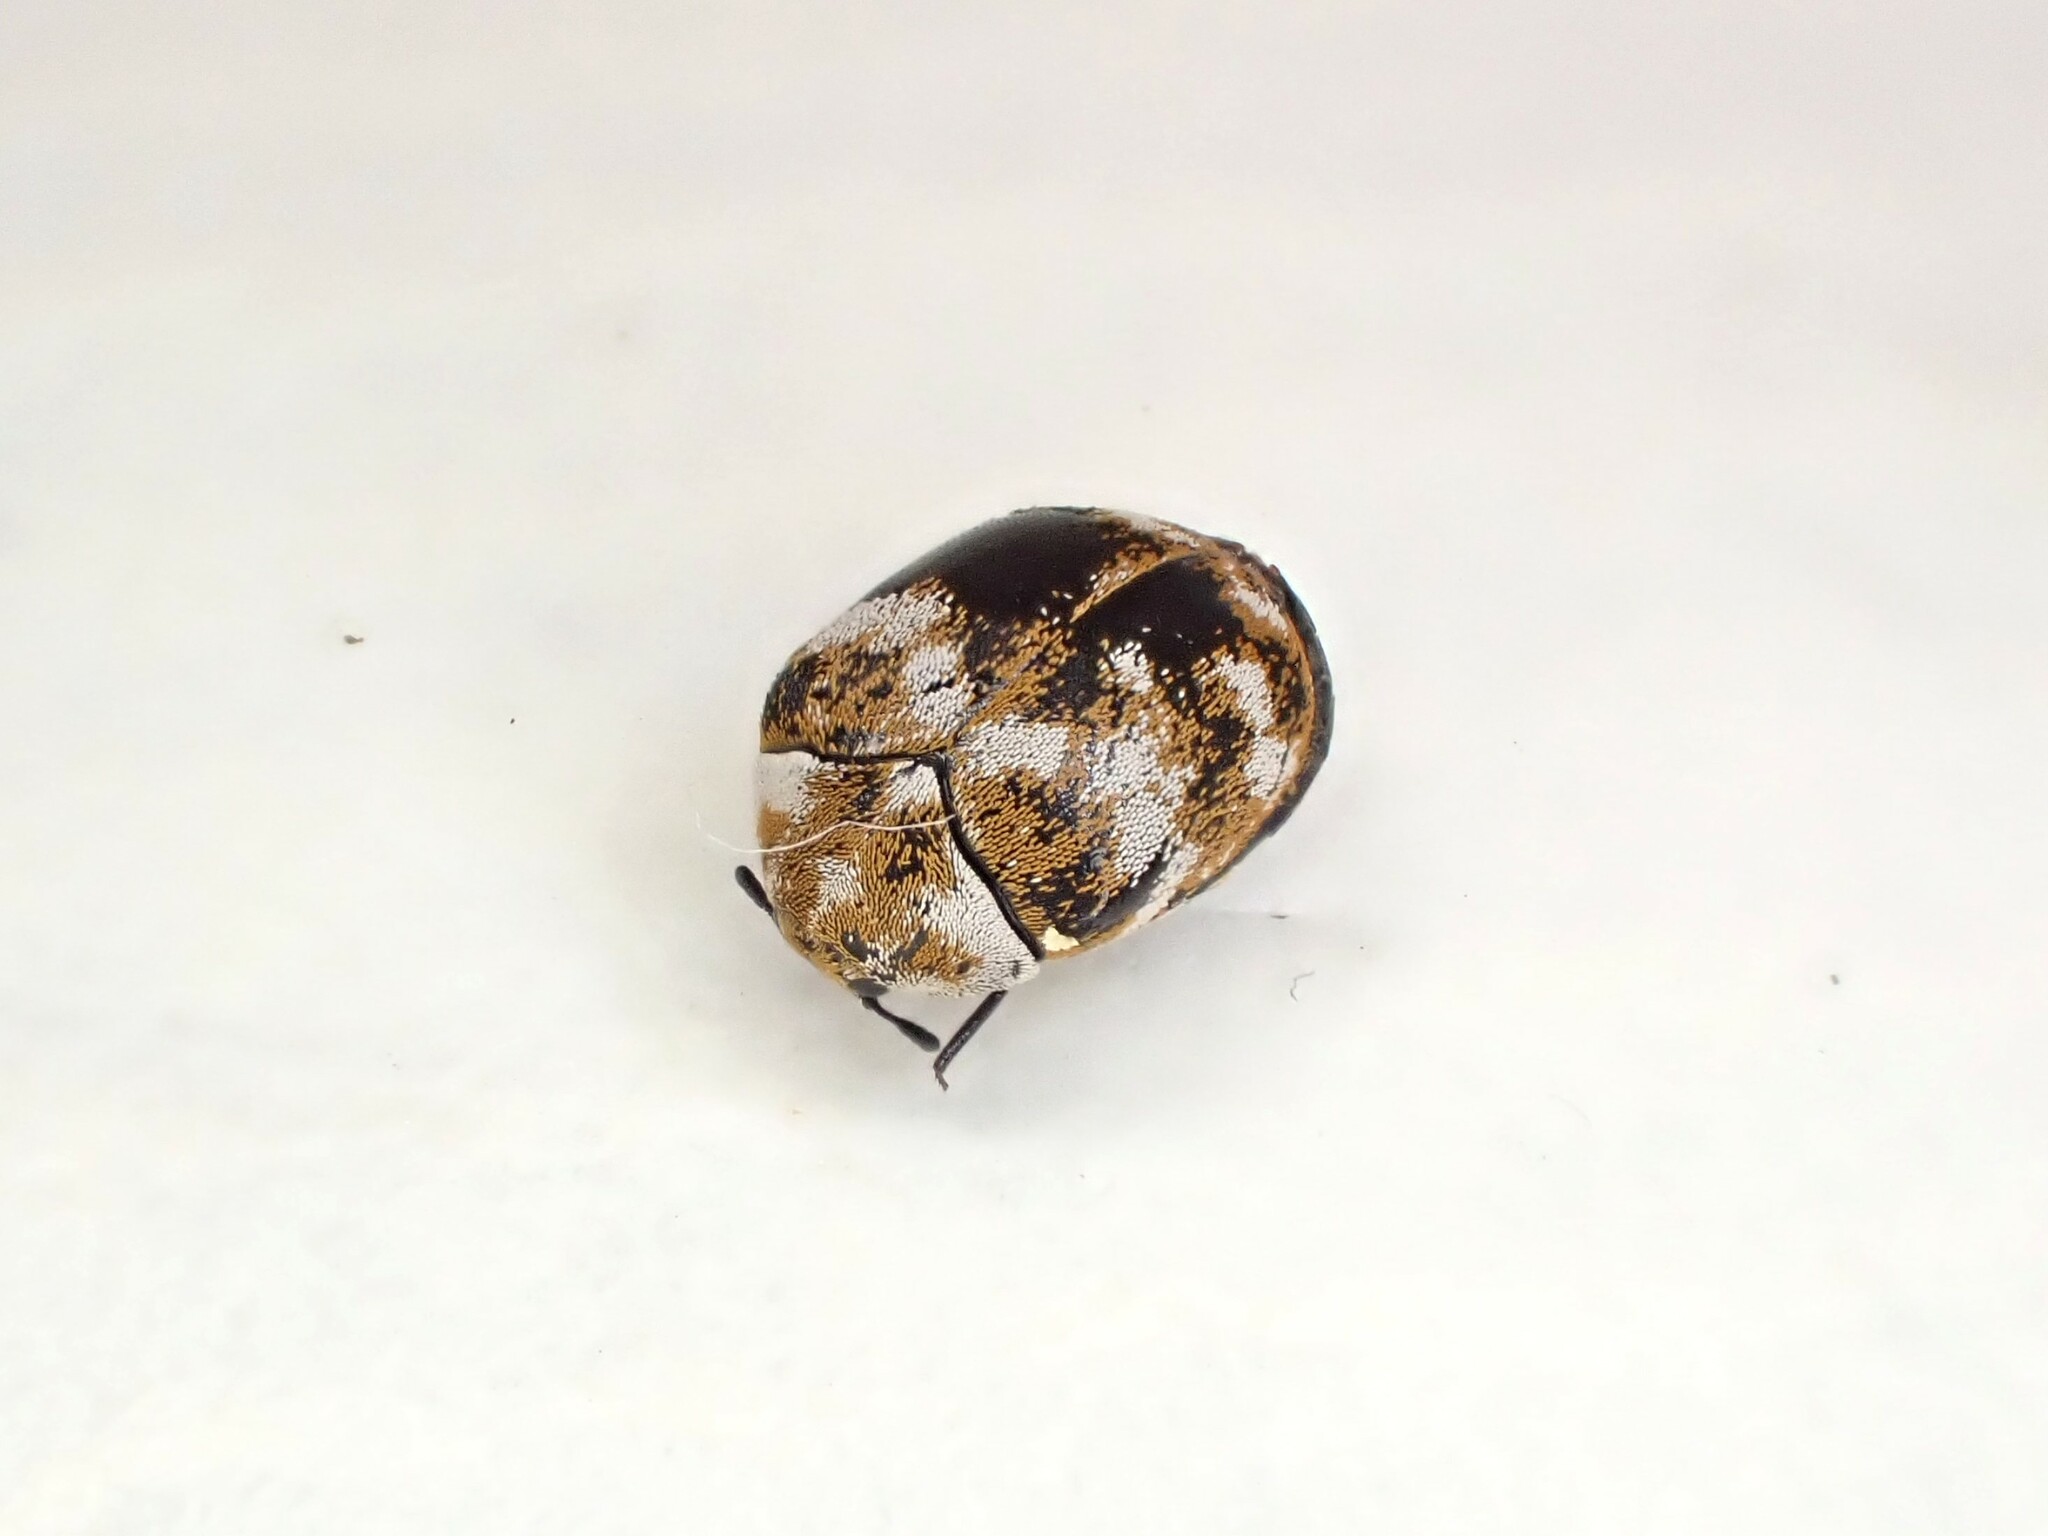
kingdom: Animalia
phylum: Arthropoda
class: Insecta
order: Coleoptera
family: Dermestidae
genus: Anthrenus
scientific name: Anthrenus verbasci
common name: Varied carpet beetle
